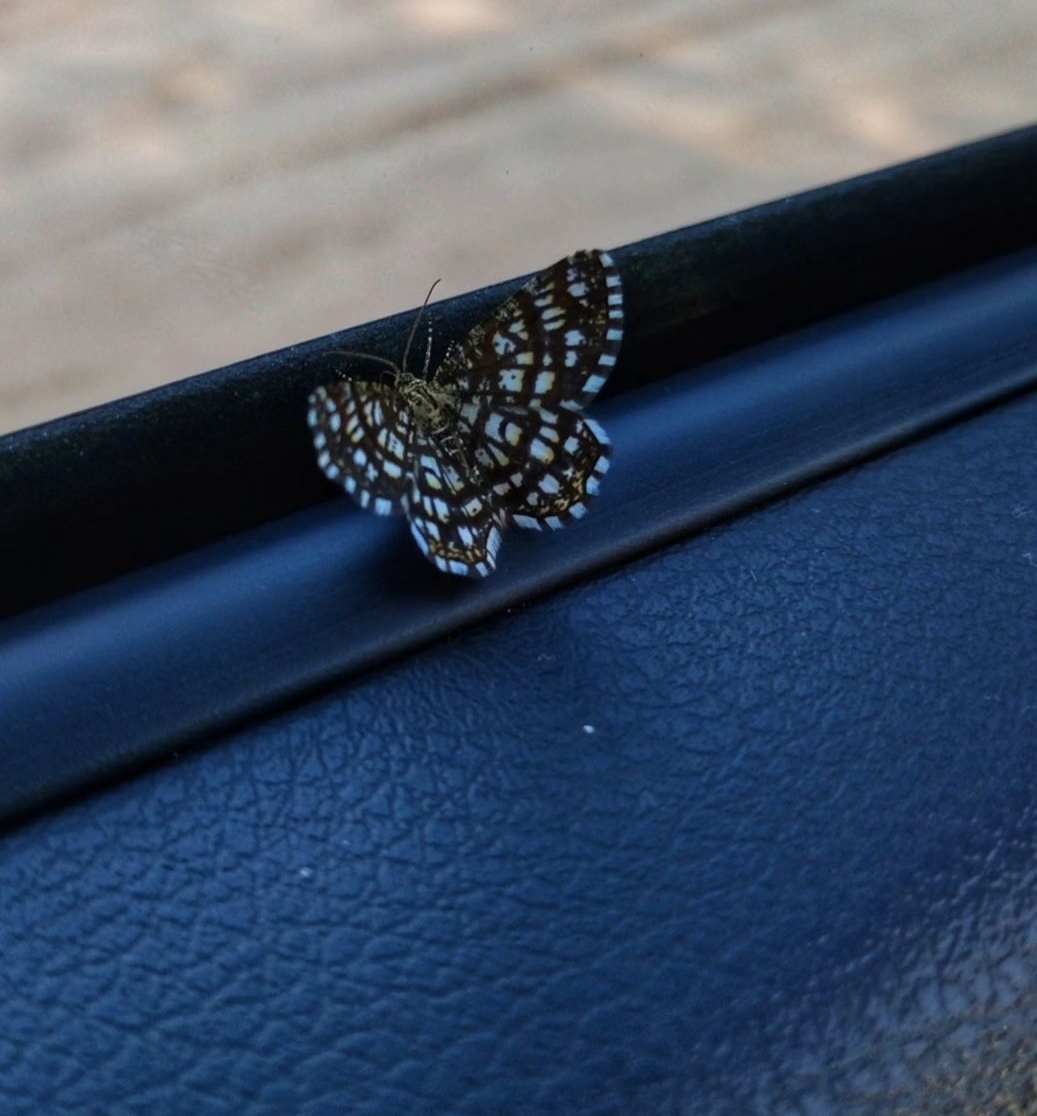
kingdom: Animalia
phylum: Arthropoda
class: Insecta
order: Lepidoptera
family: Geometridae
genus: Chiasmia
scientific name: Chiasmia clathrata
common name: Latticed heath
